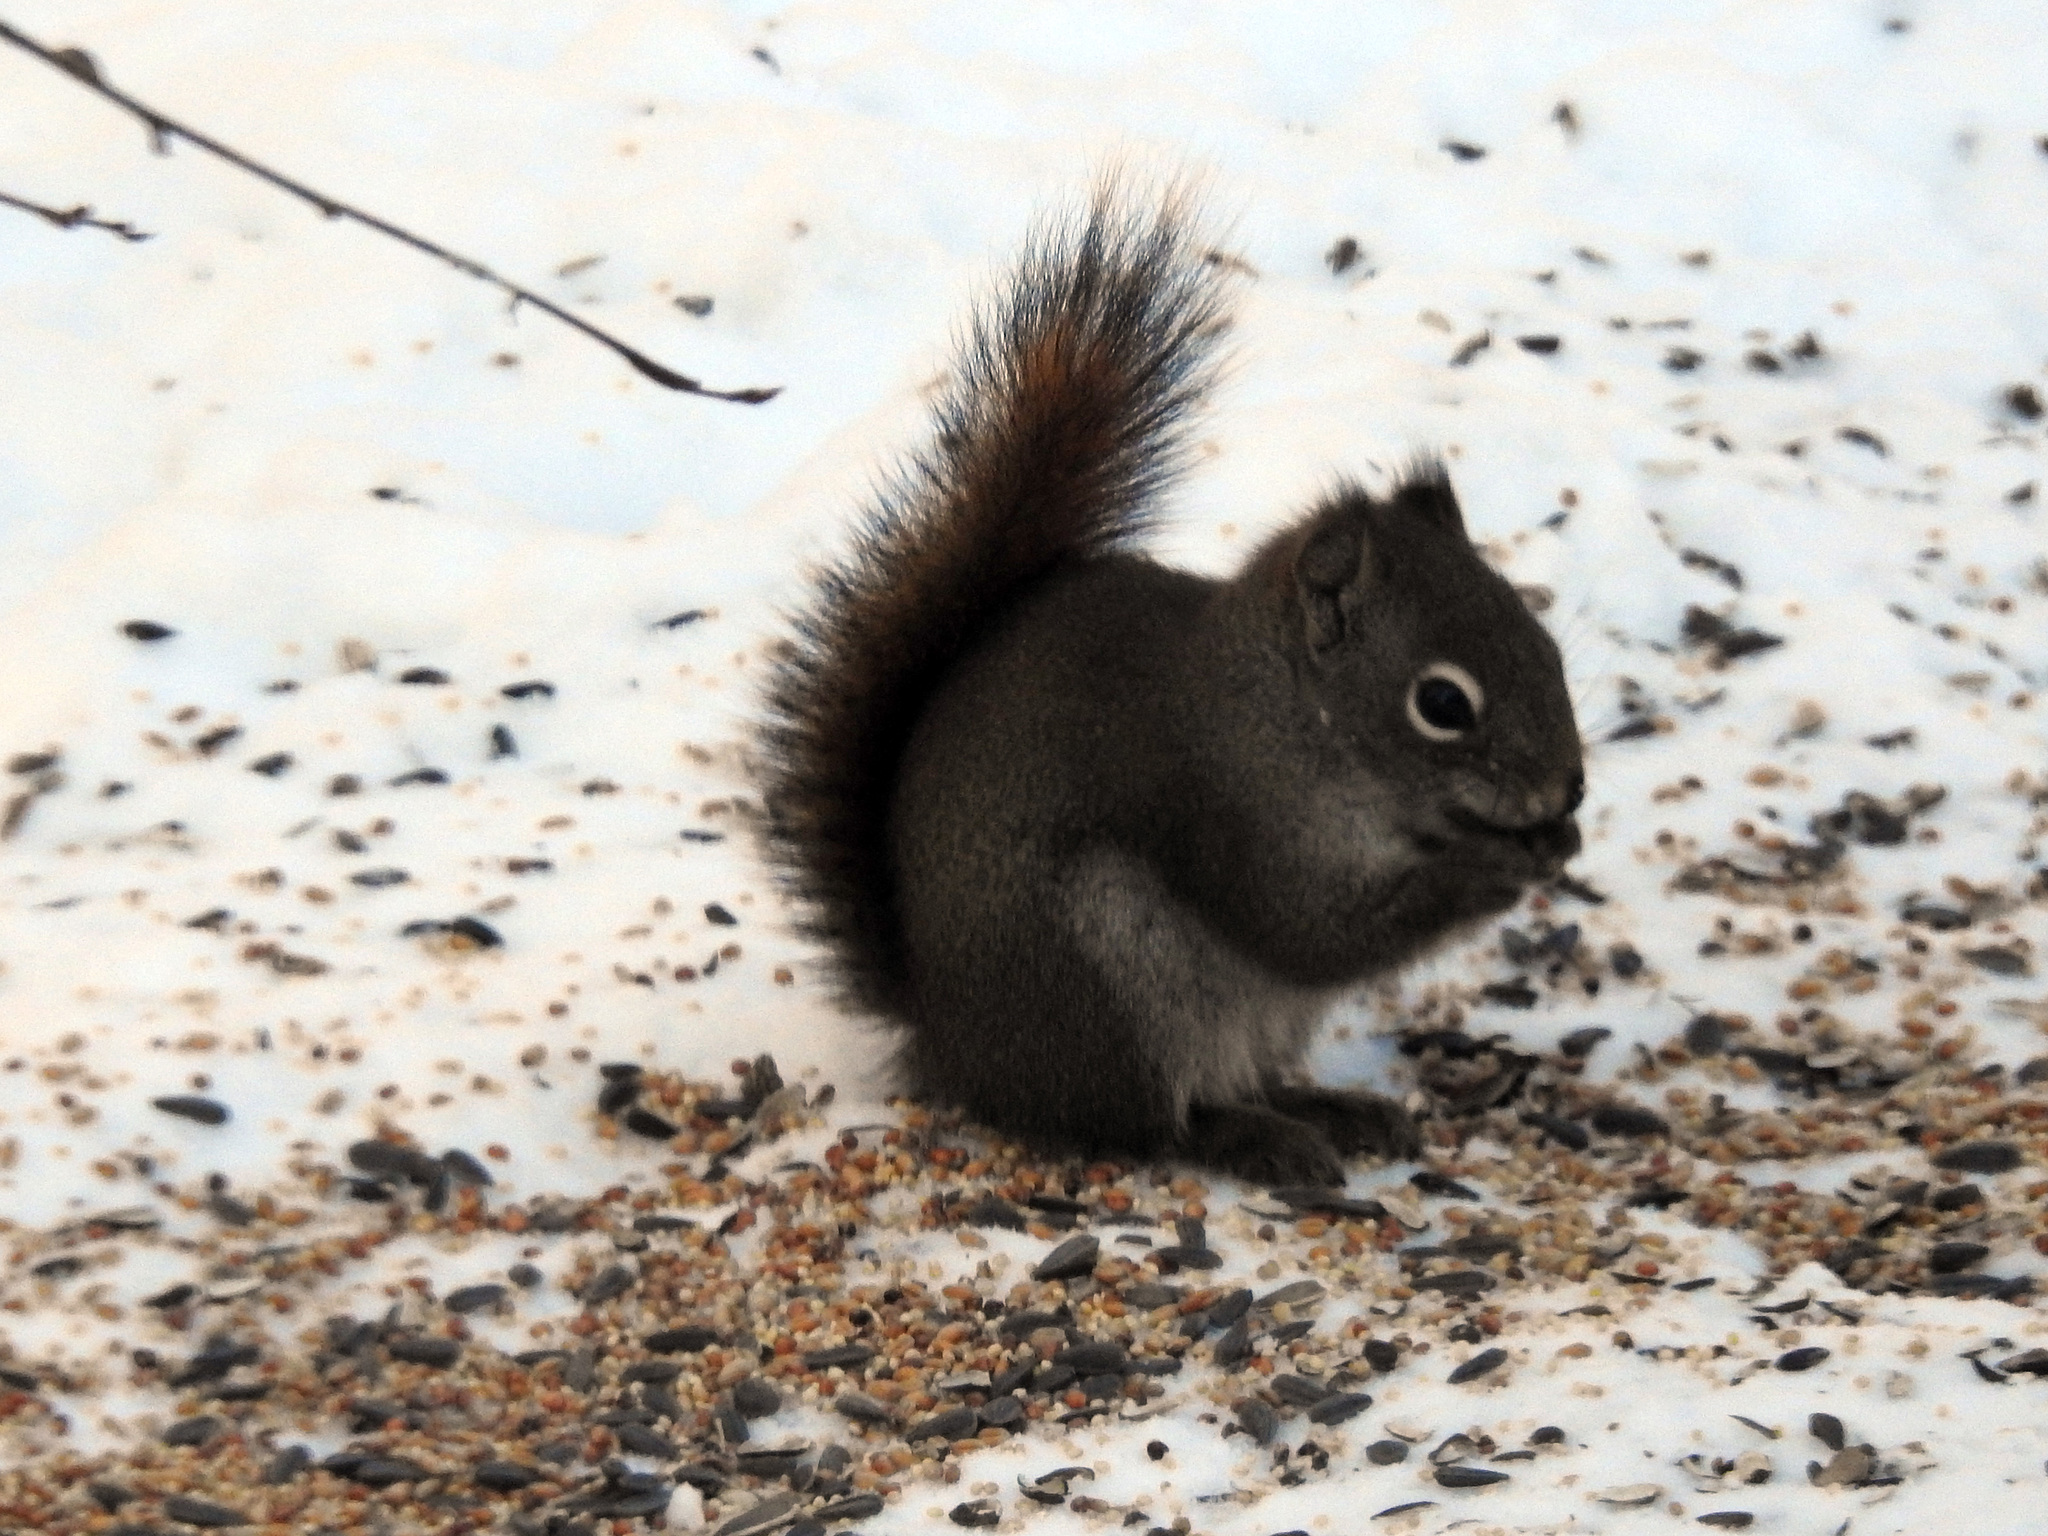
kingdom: Animalia
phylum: Chordata
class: Mammalia
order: Rodentia
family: Sciuridae
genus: Tamiasciurus
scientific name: Tamiasciurus hudsonicus
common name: Red squirrel
